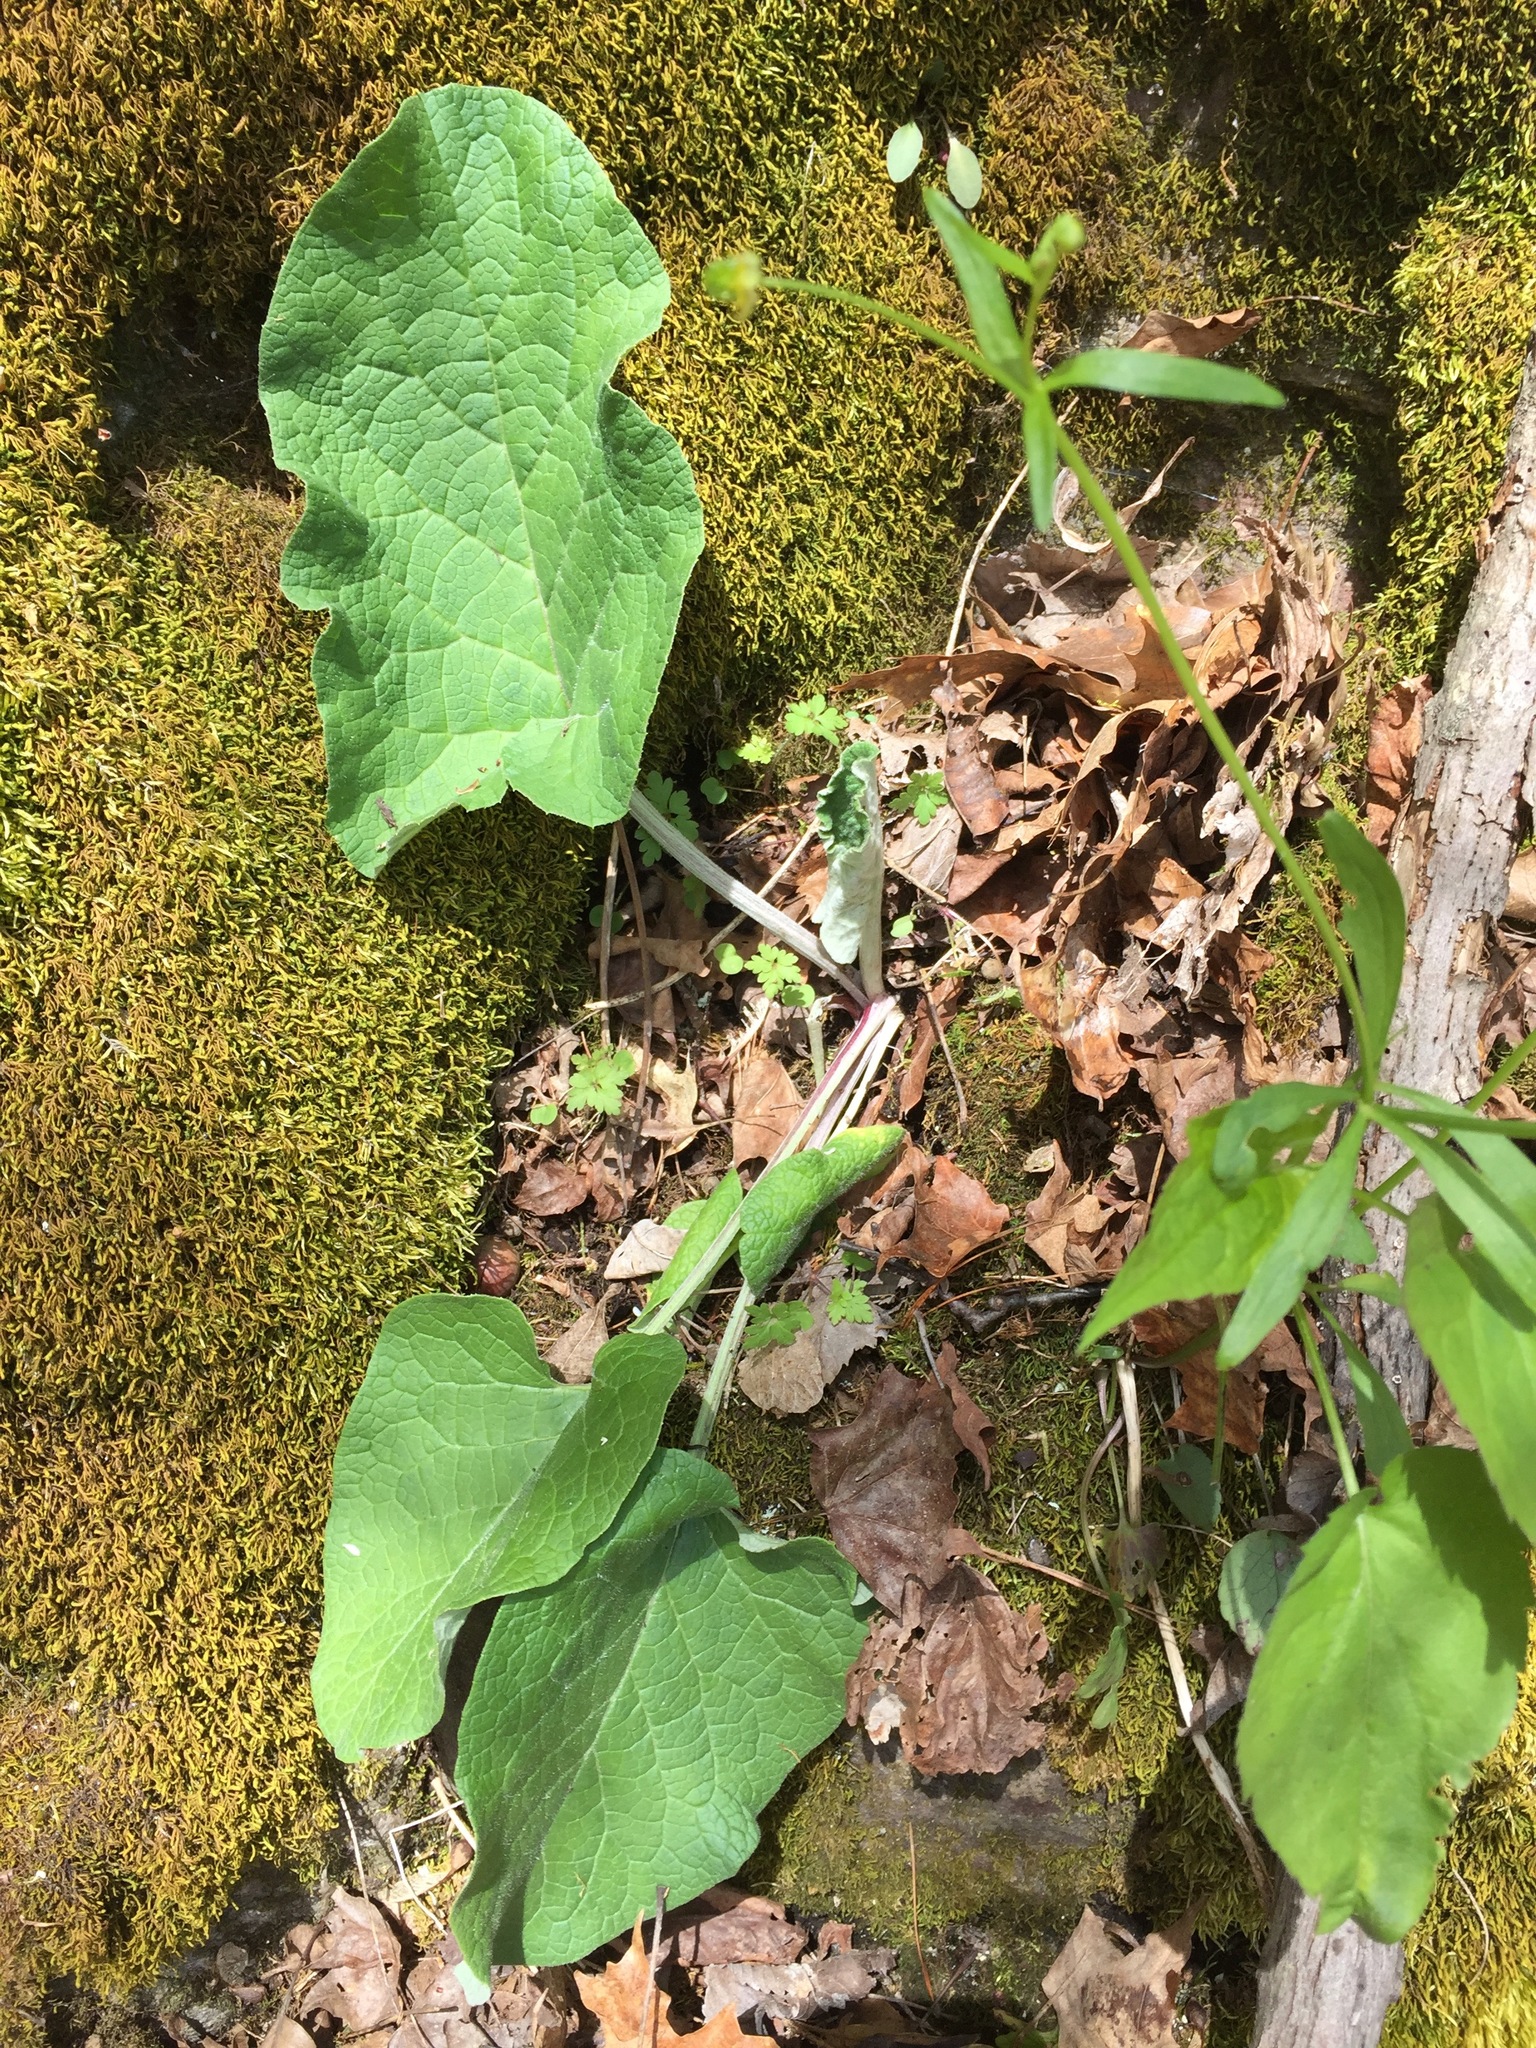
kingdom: Plantae
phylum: Tracheophyta
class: Magnoliopsida
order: Asterales
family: Asteraceae
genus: Arctium
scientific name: Arctium
